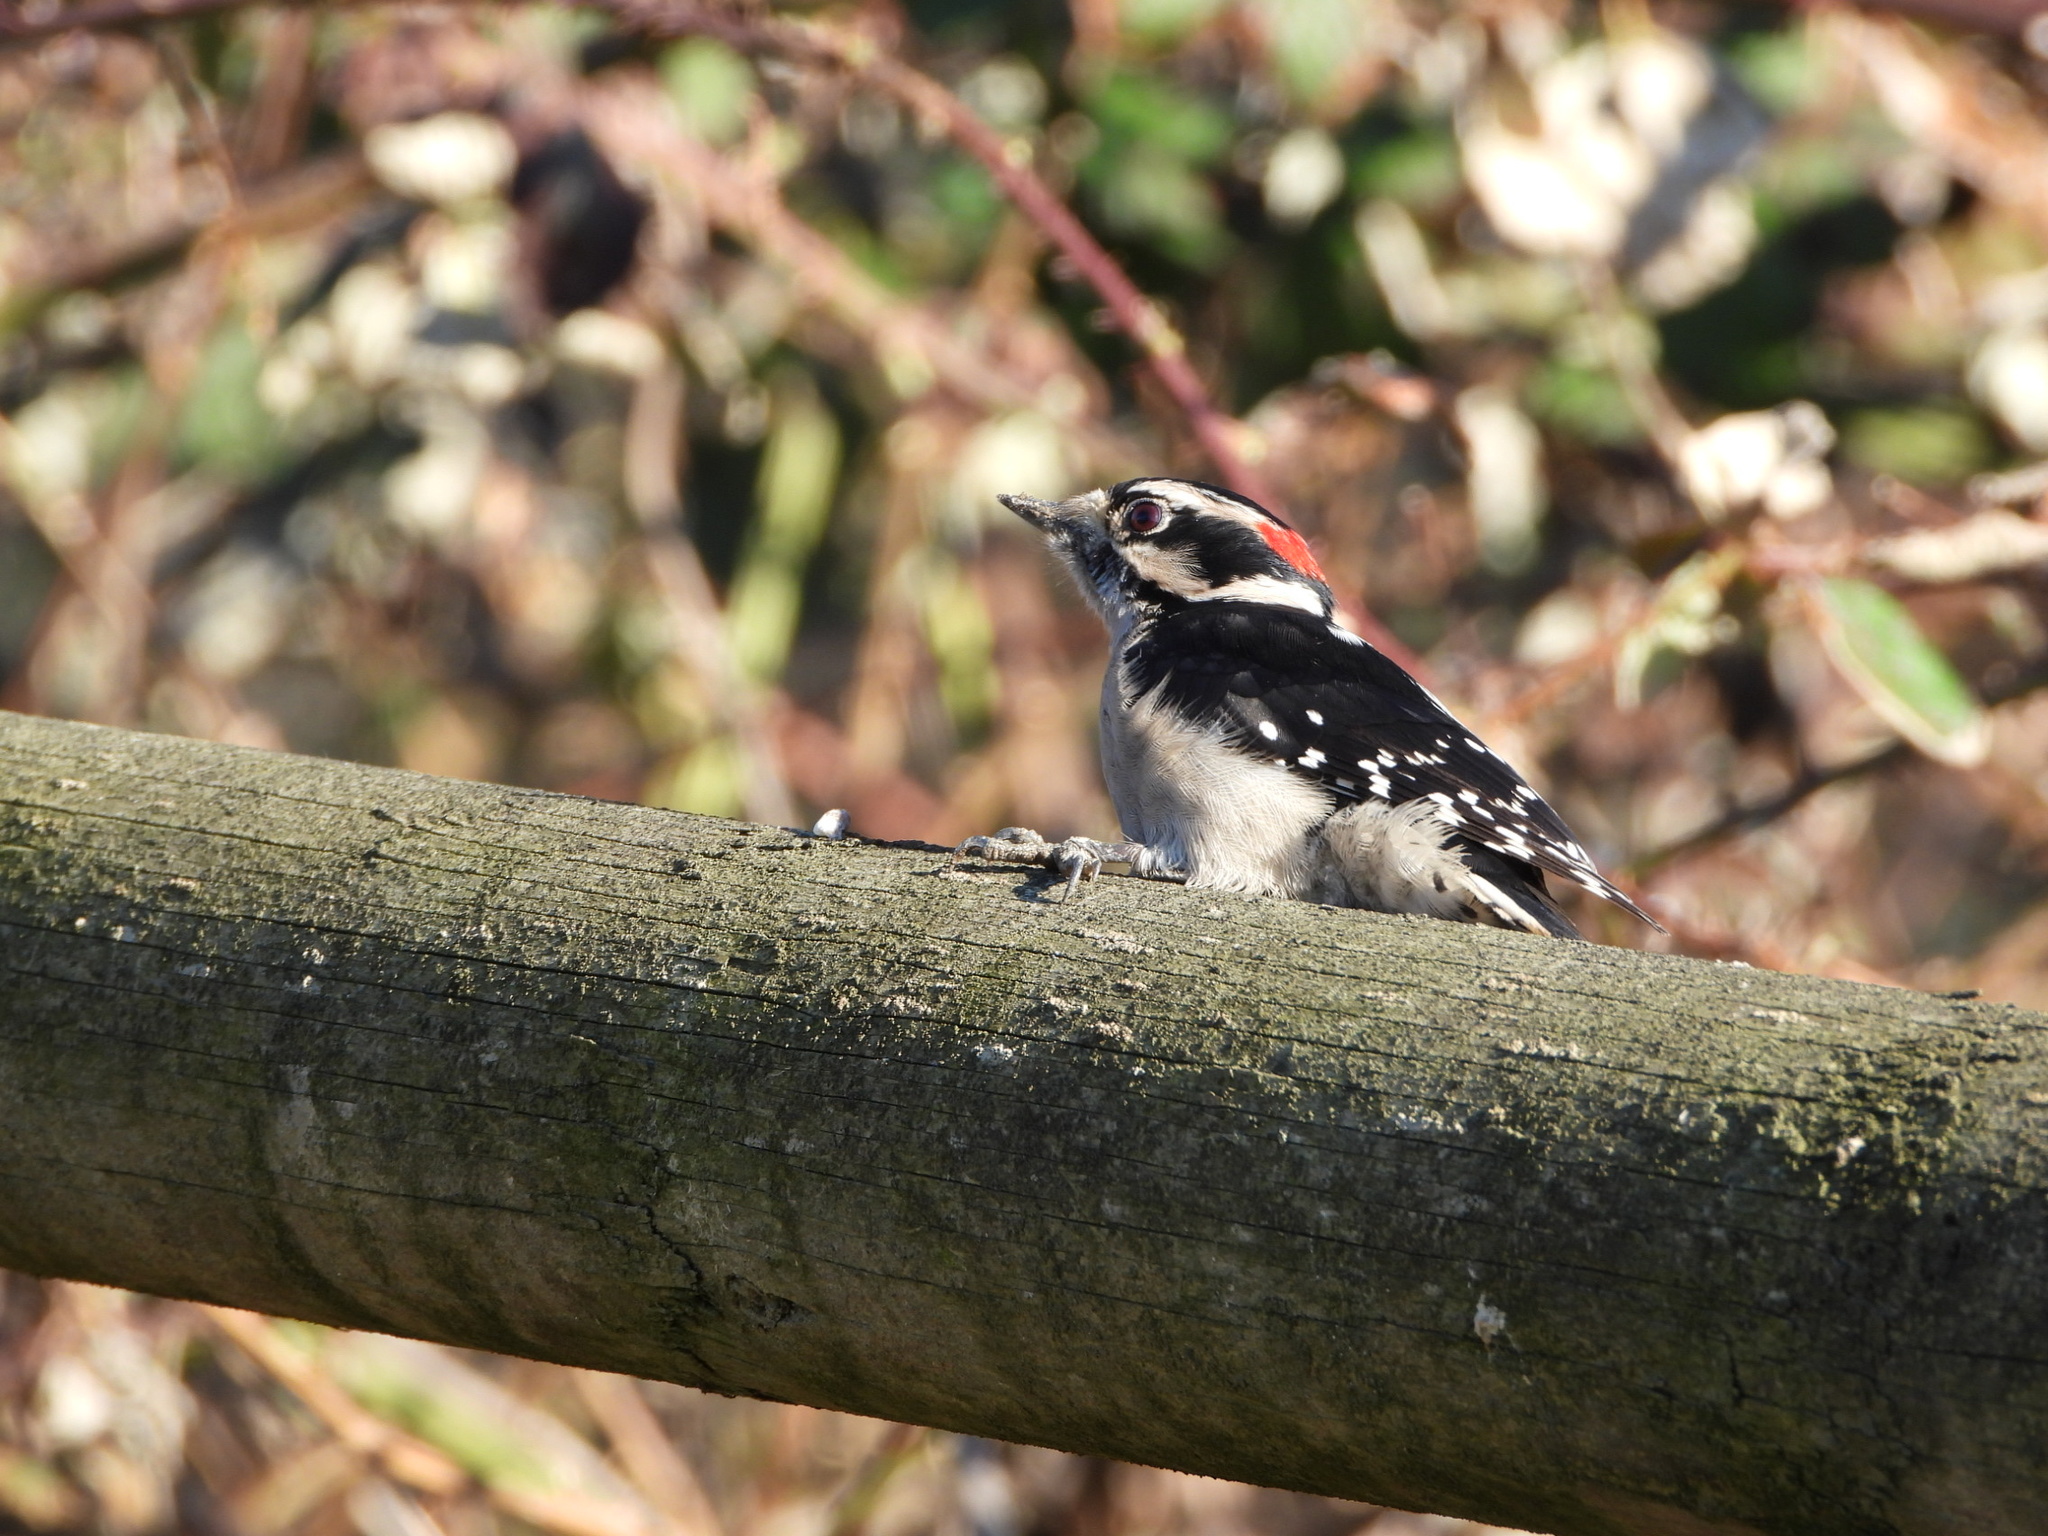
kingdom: Animalia
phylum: Chordata
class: Aves
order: Piciformes
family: Picidae
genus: Dryobates
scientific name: Dryobates pubescens
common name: Downy woodpecker
